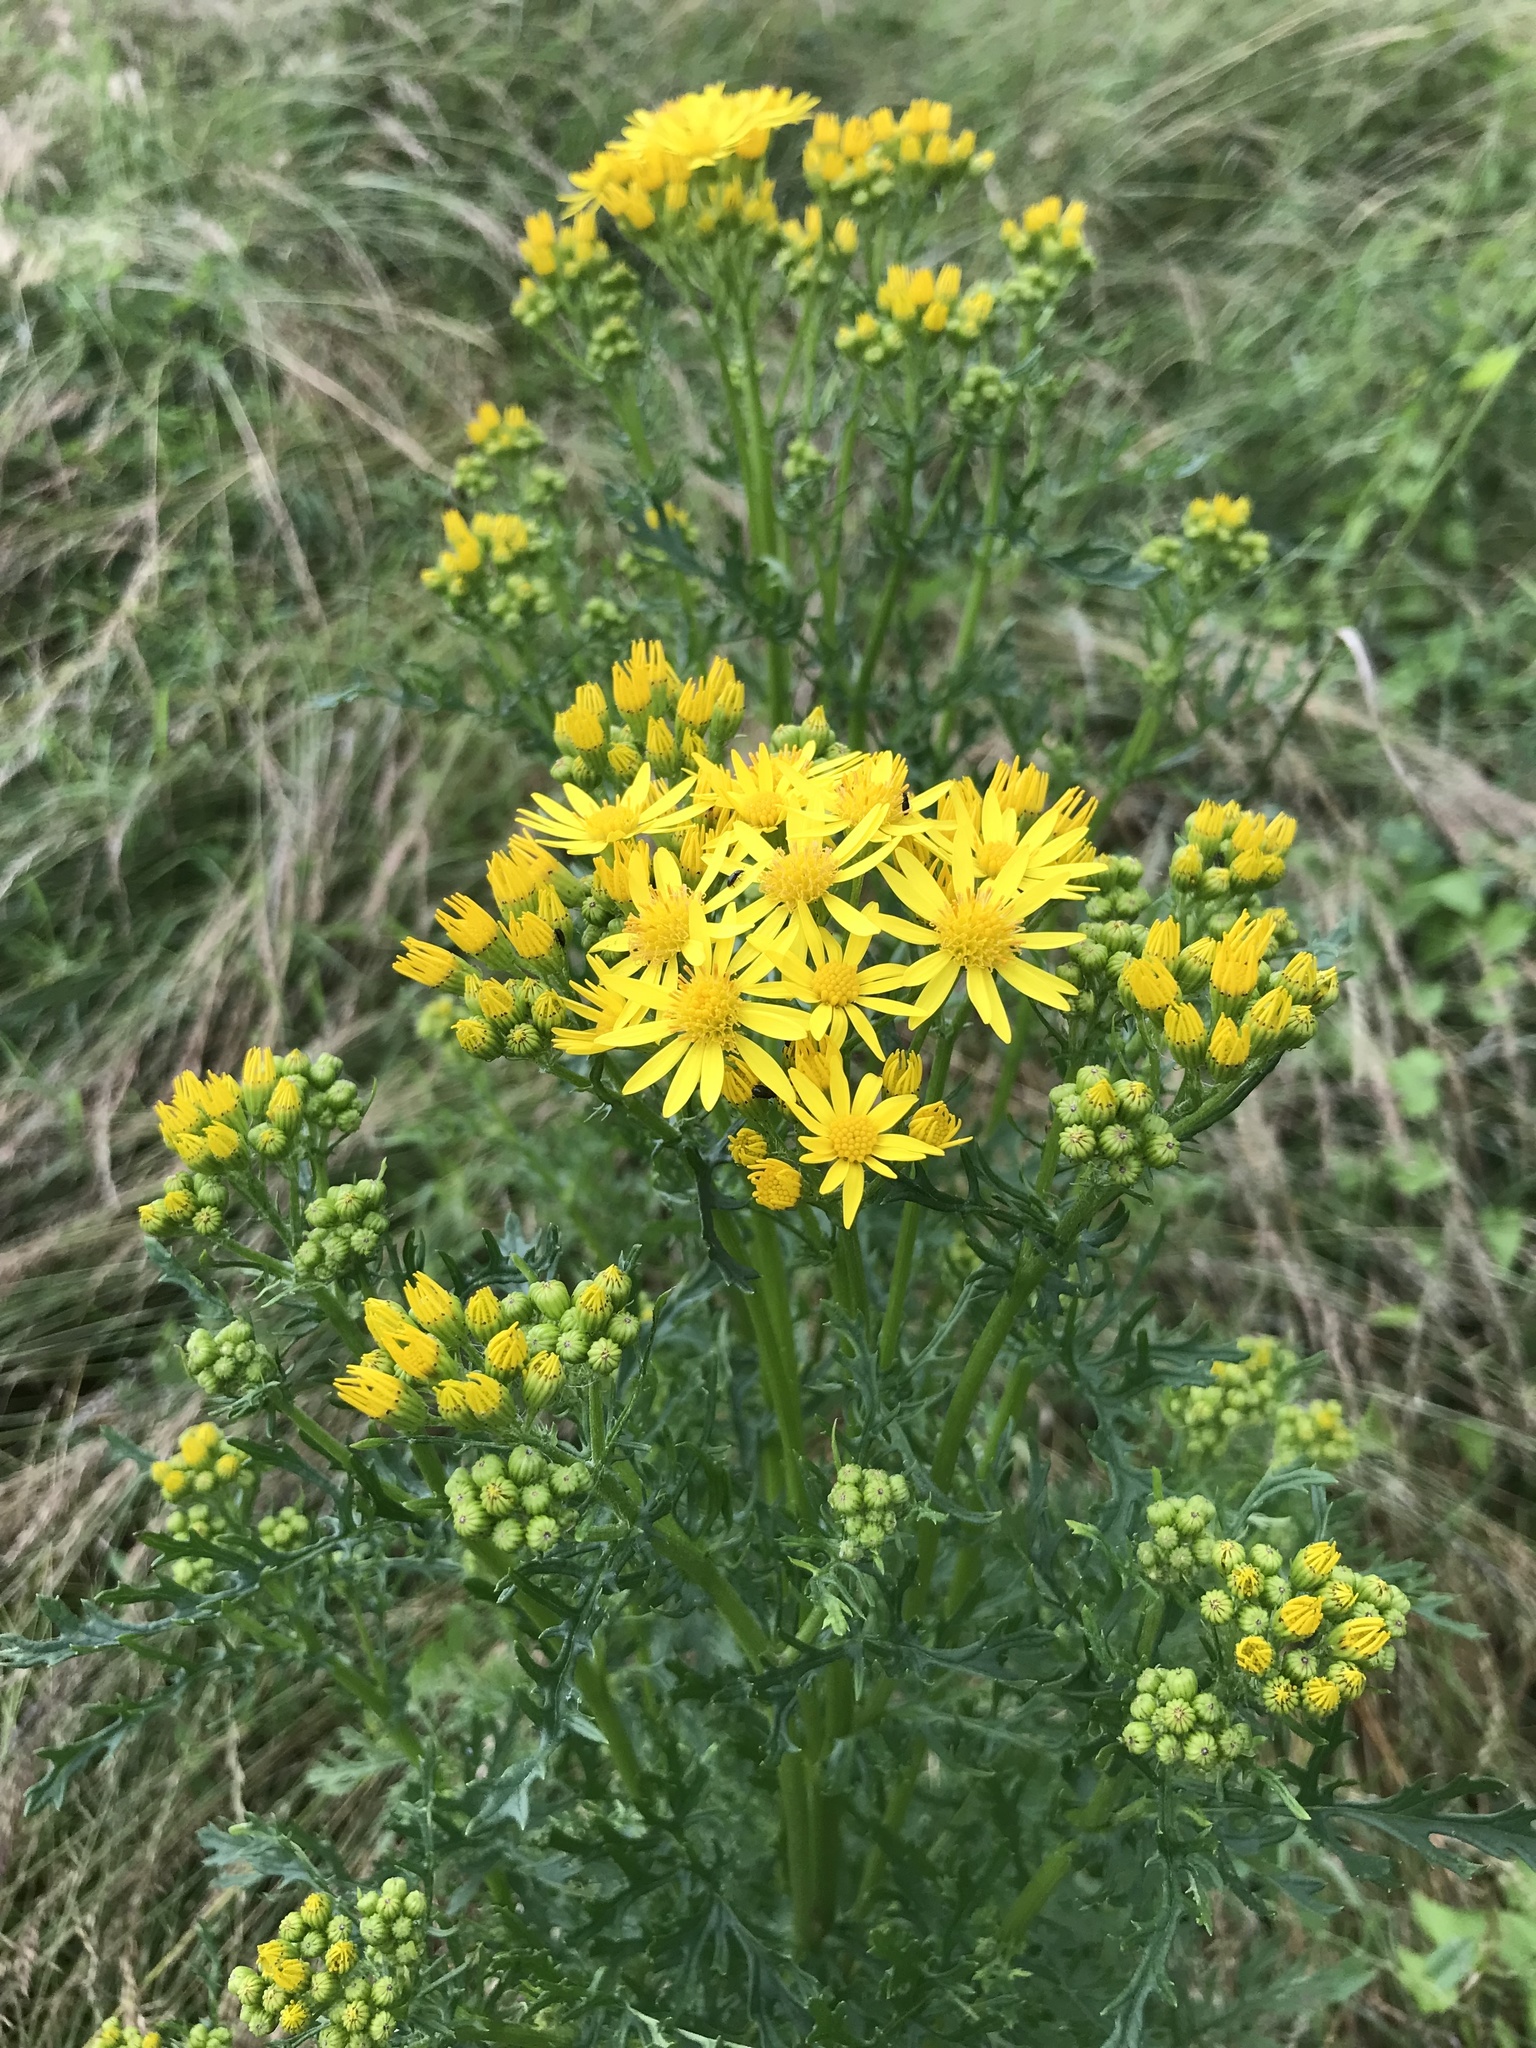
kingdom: Plantae
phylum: Tracheophyta
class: Magnoliopsida
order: Asterales
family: Asteraceae
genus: Jacobaea
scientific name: Jacobaea vulgaris
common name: Stinking willie
